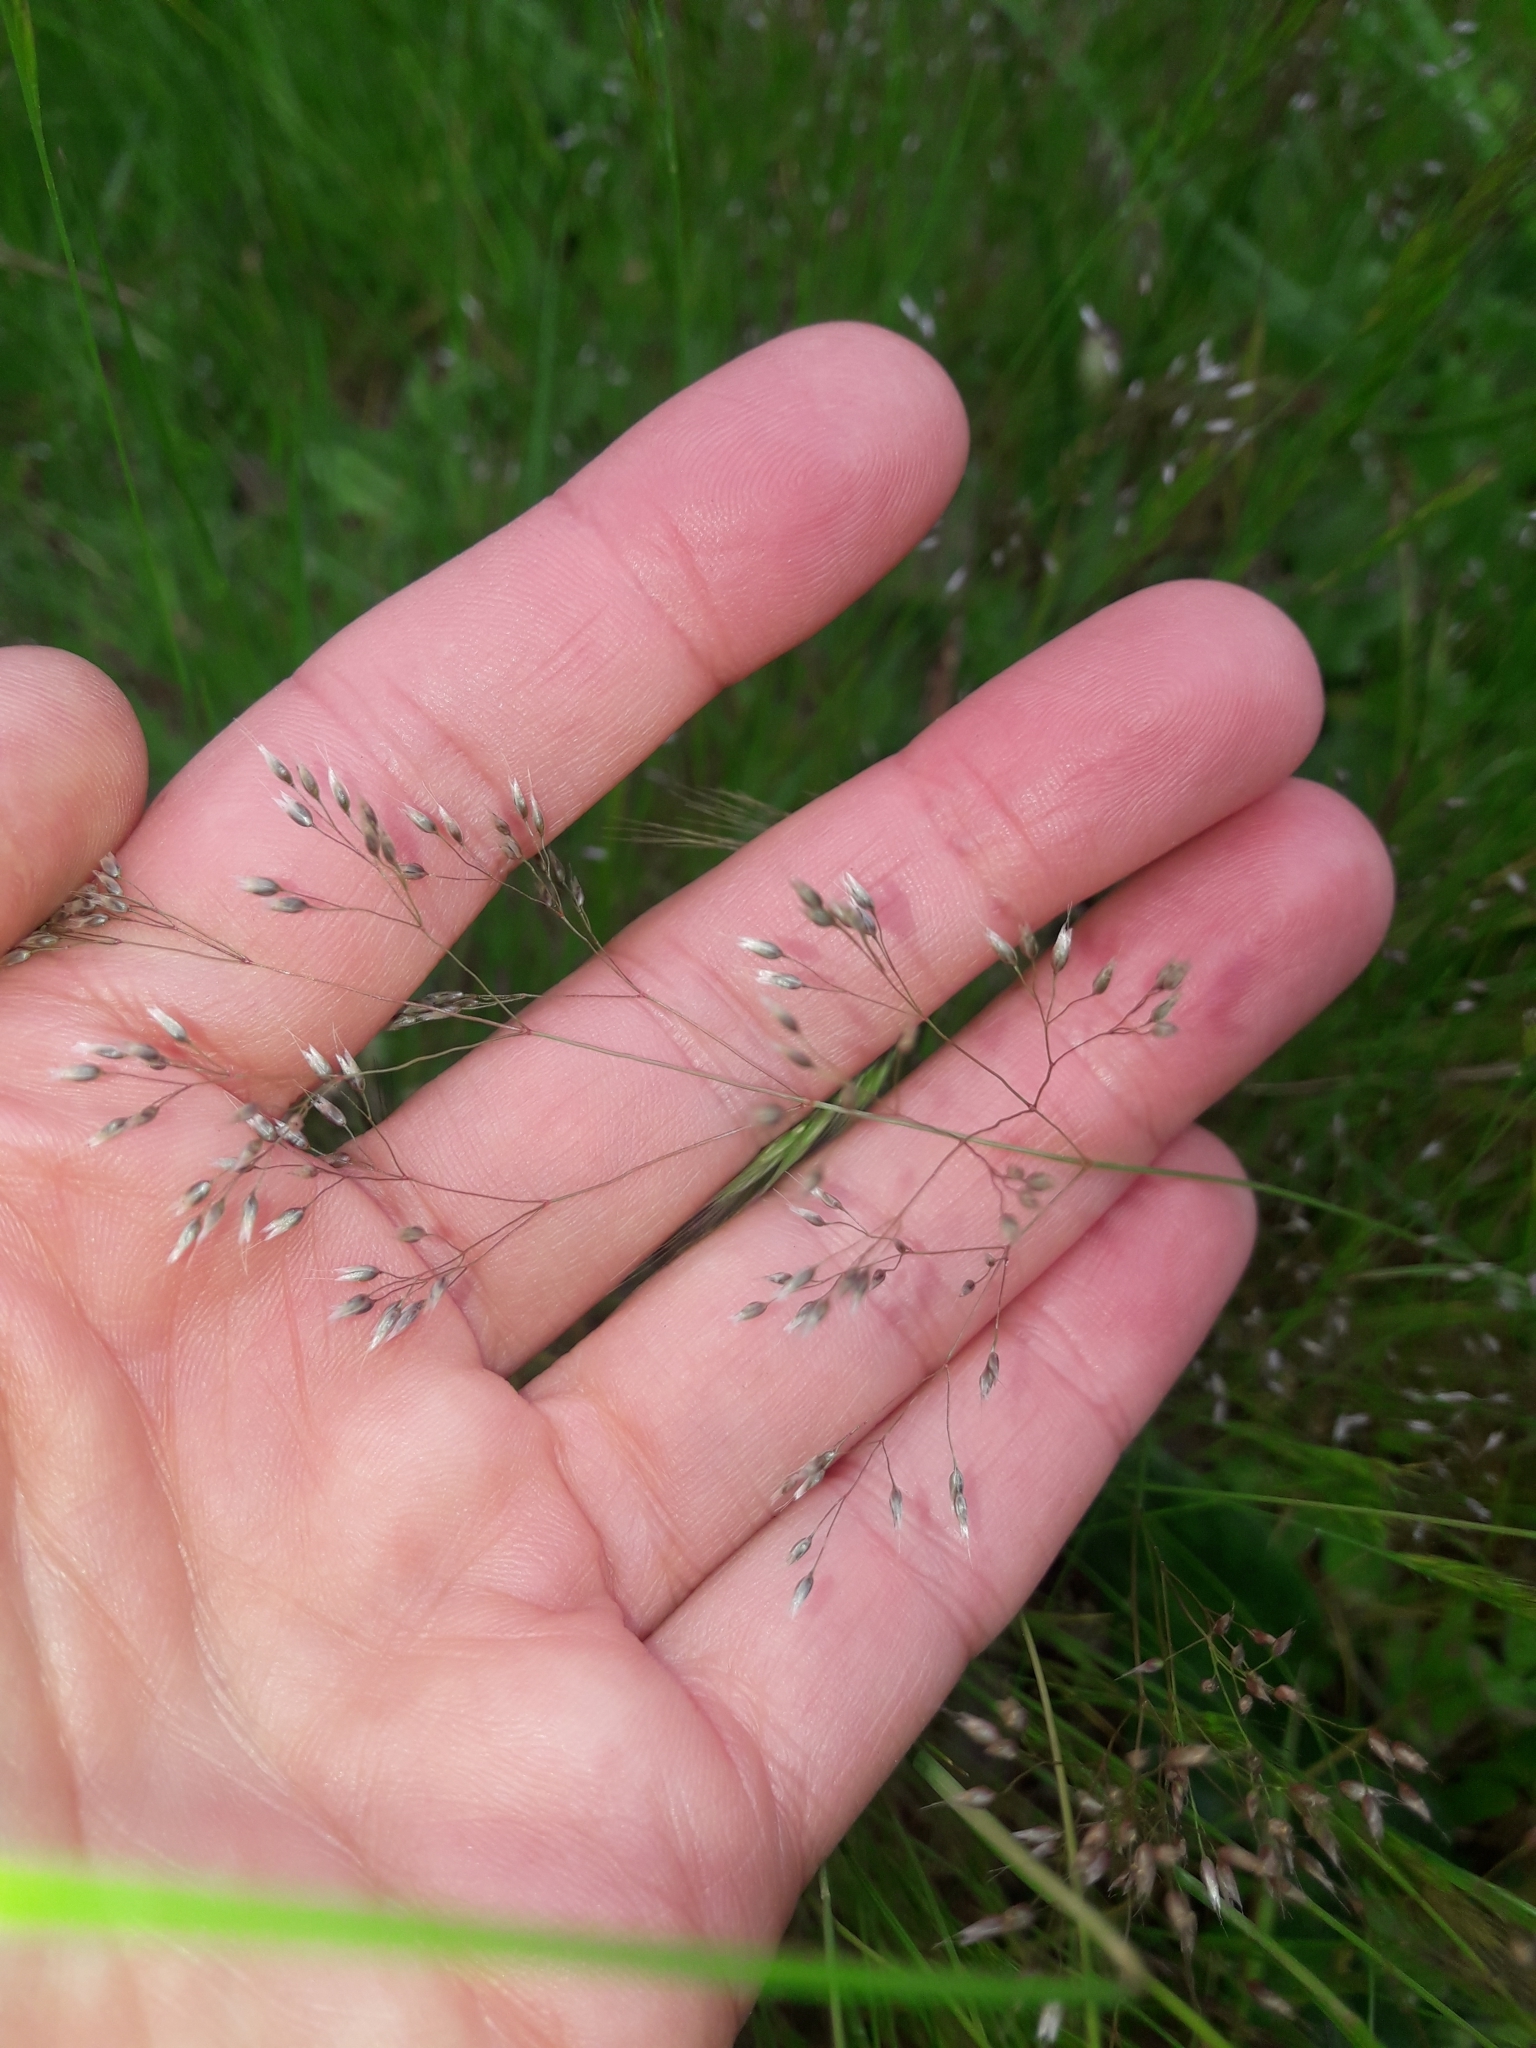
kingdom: Plantae
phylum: Tracheophyta
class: Liliopsida
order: Poales
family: Poaceae
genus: Aira
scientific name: Aira caryophyllea
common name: Silver hairgrass
